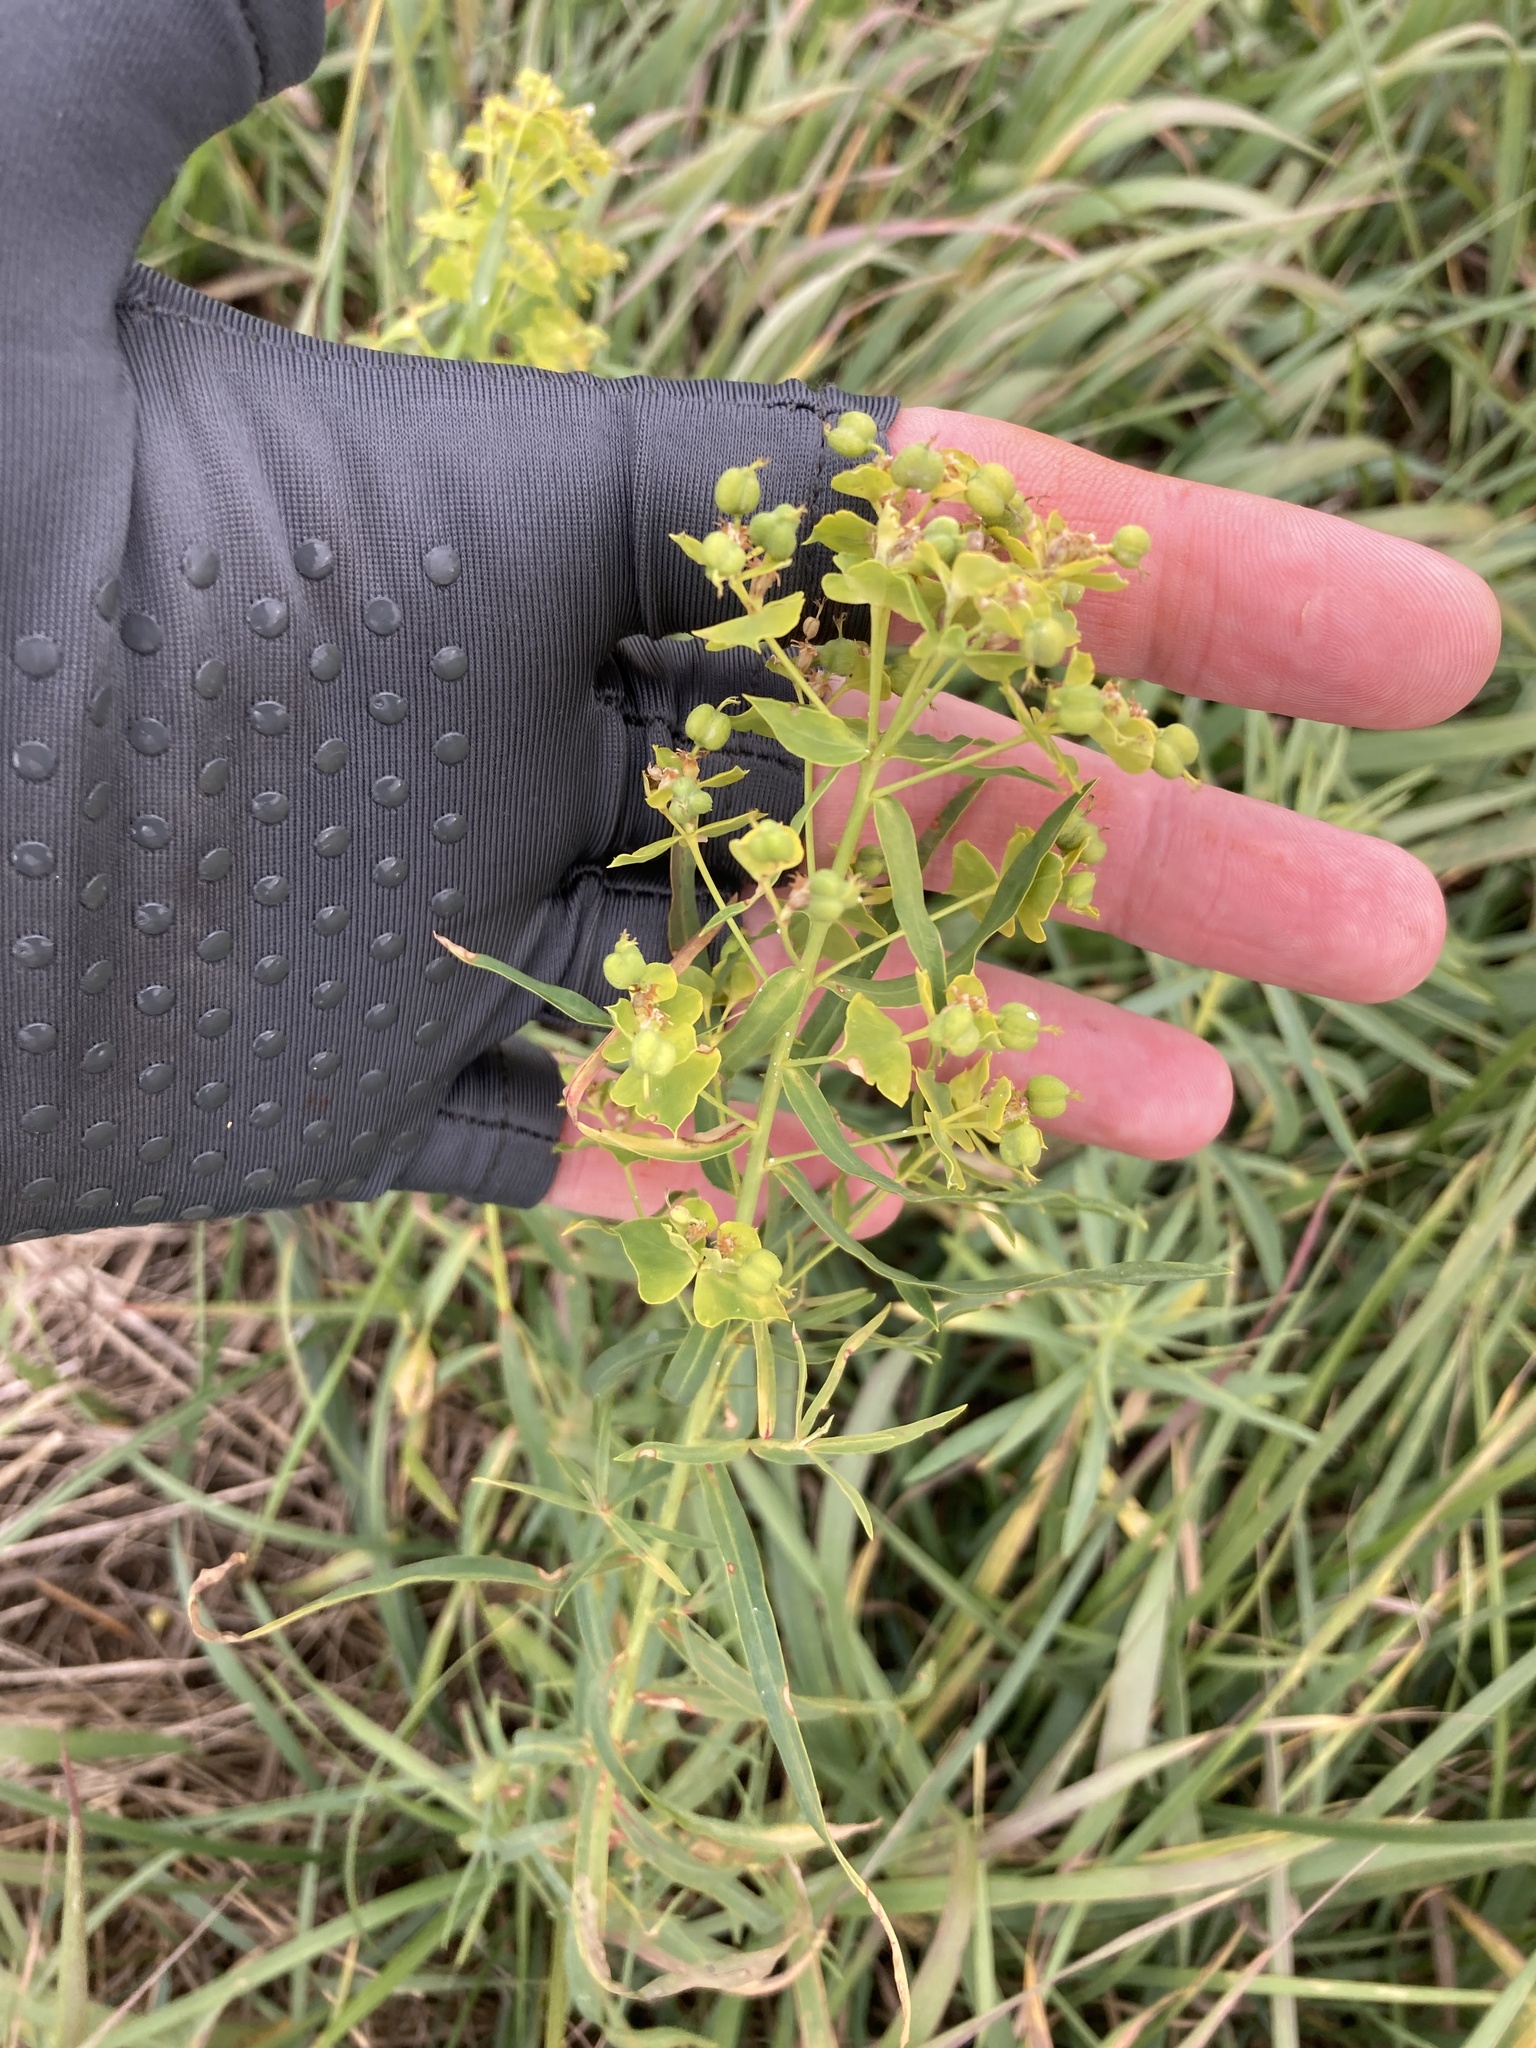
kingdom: Plantae
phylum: Tracheophyta
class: Magnoliopsida
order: Malpighiales
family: Euphorbiaceae
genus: Euphorbia
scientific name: Euphorbia virgata
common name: Leafy spurge
